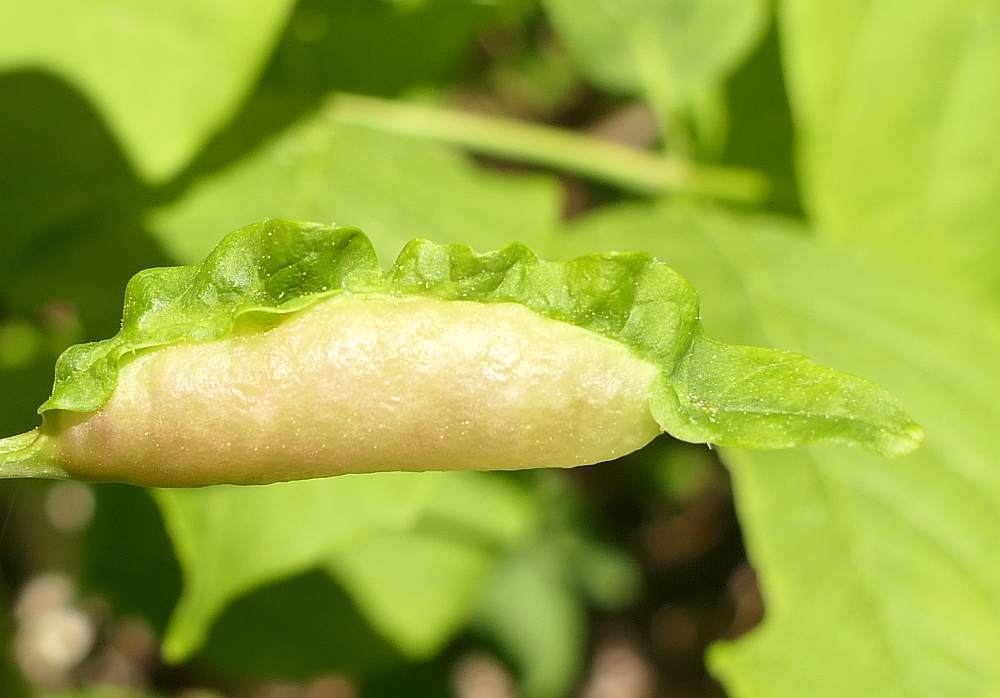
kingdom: Animalia
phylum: Arthropoda
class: Insecta
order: Diptera
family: Cecidomyiidae
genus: Dasineura
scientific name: Dasineura tumidosae
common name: Ash petiole gall midge
